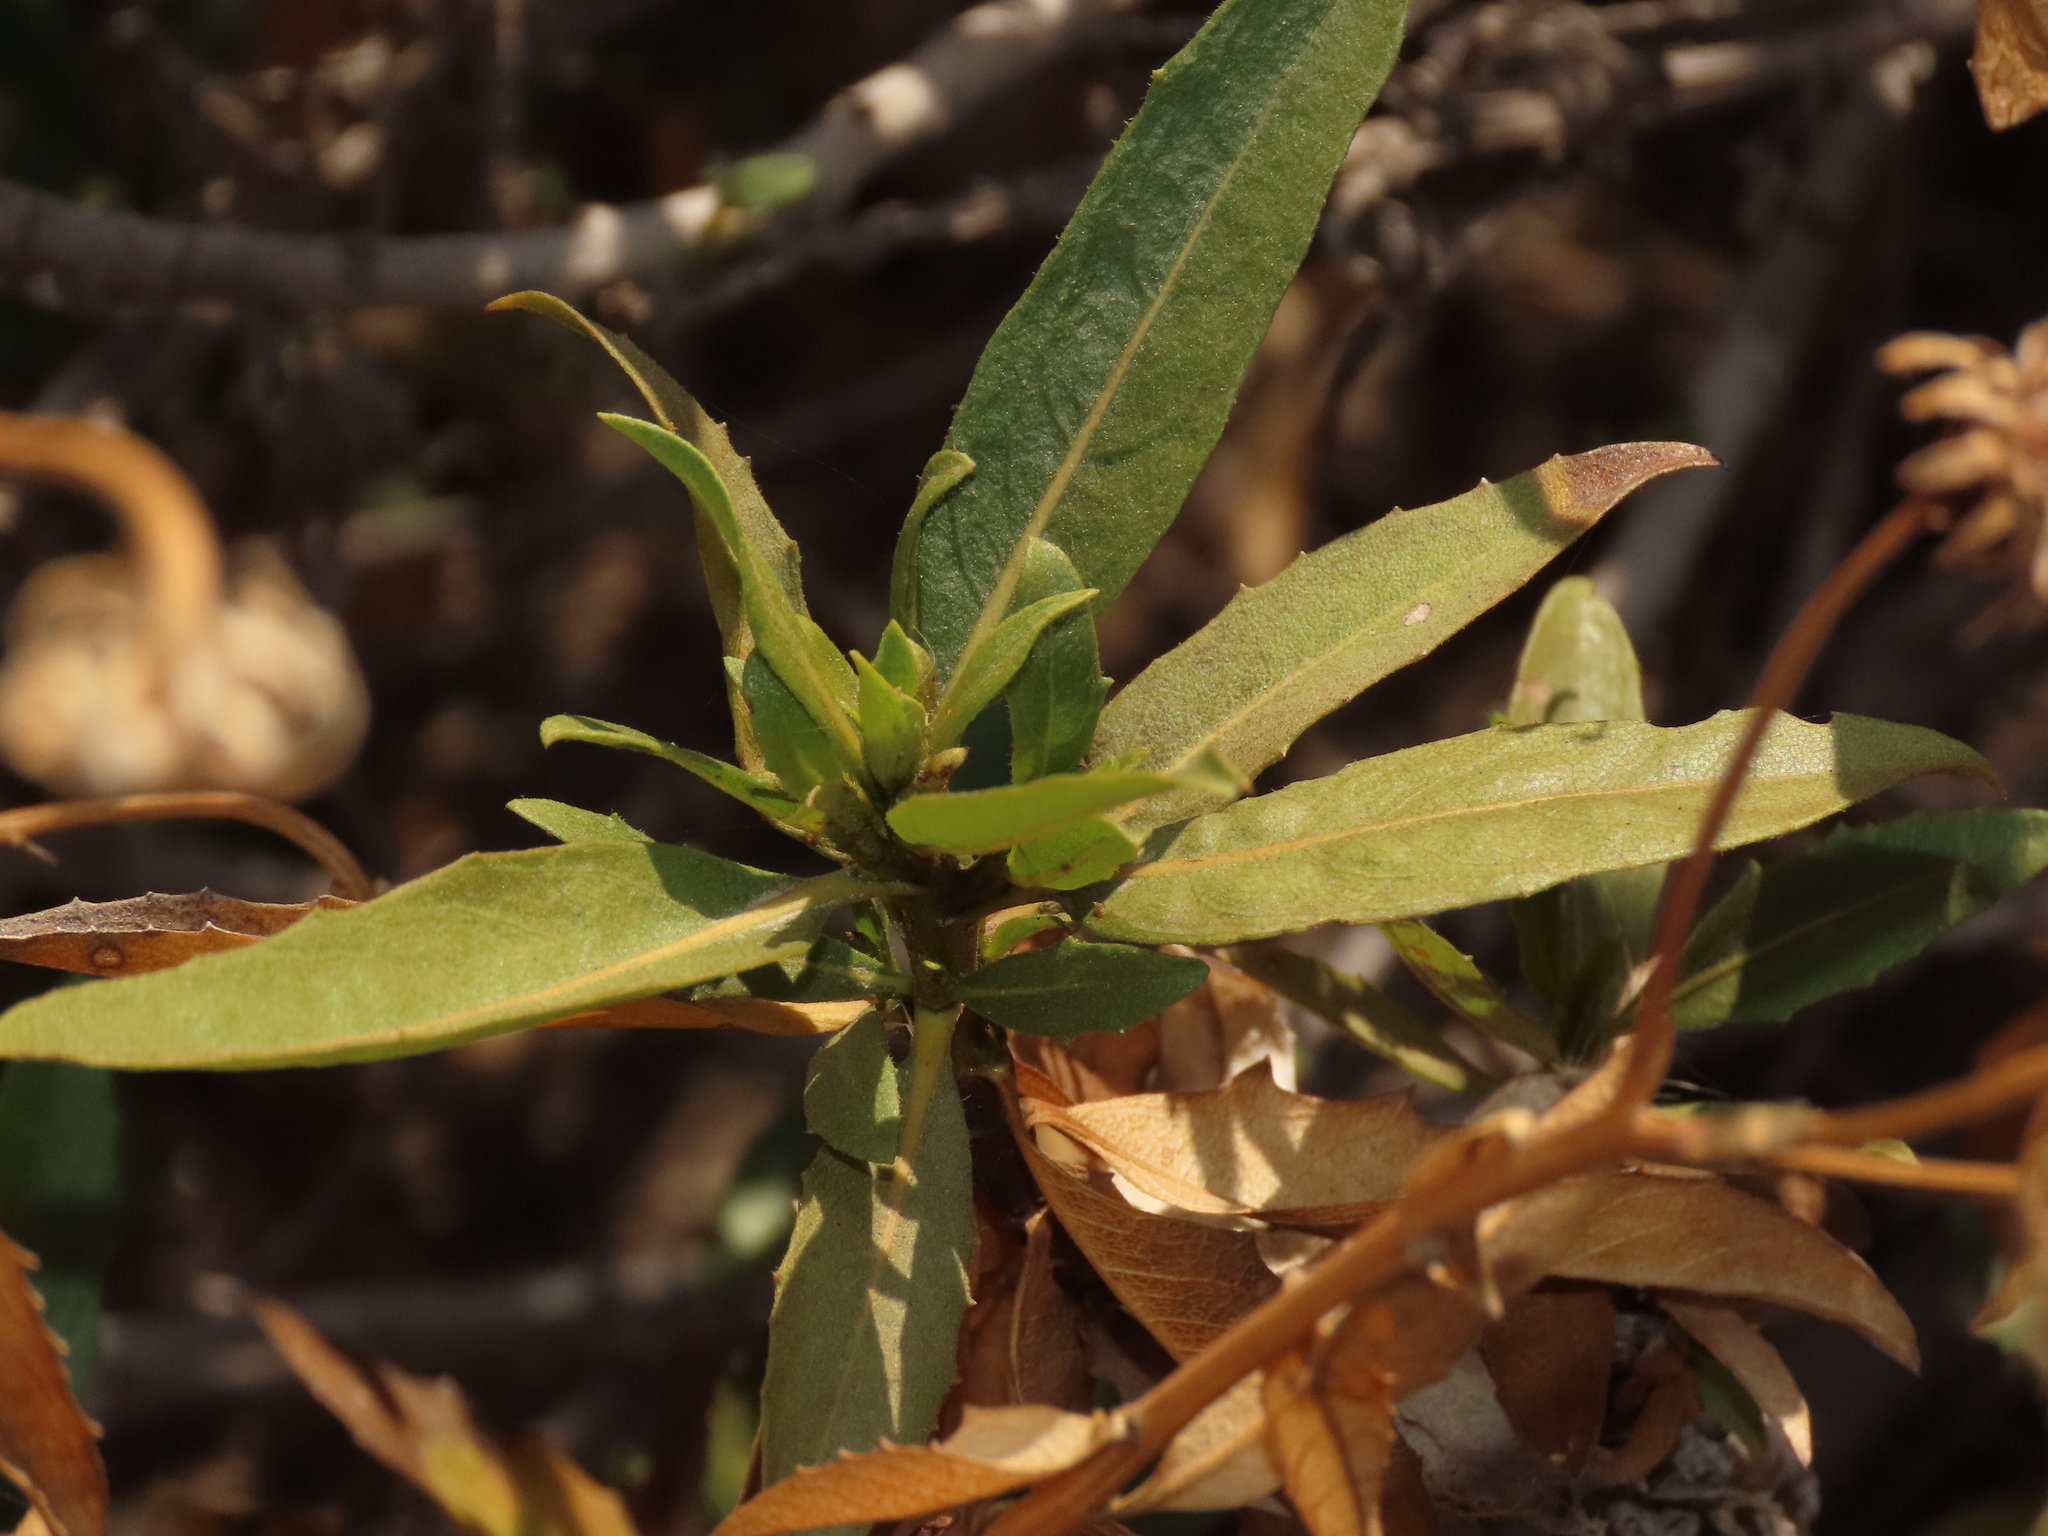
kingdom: Plantae
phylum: Tracheophyta
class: Magnoliopsida
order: Asterales
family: Asteraceae
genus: Flourensia
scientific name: Flourensia thurifera
